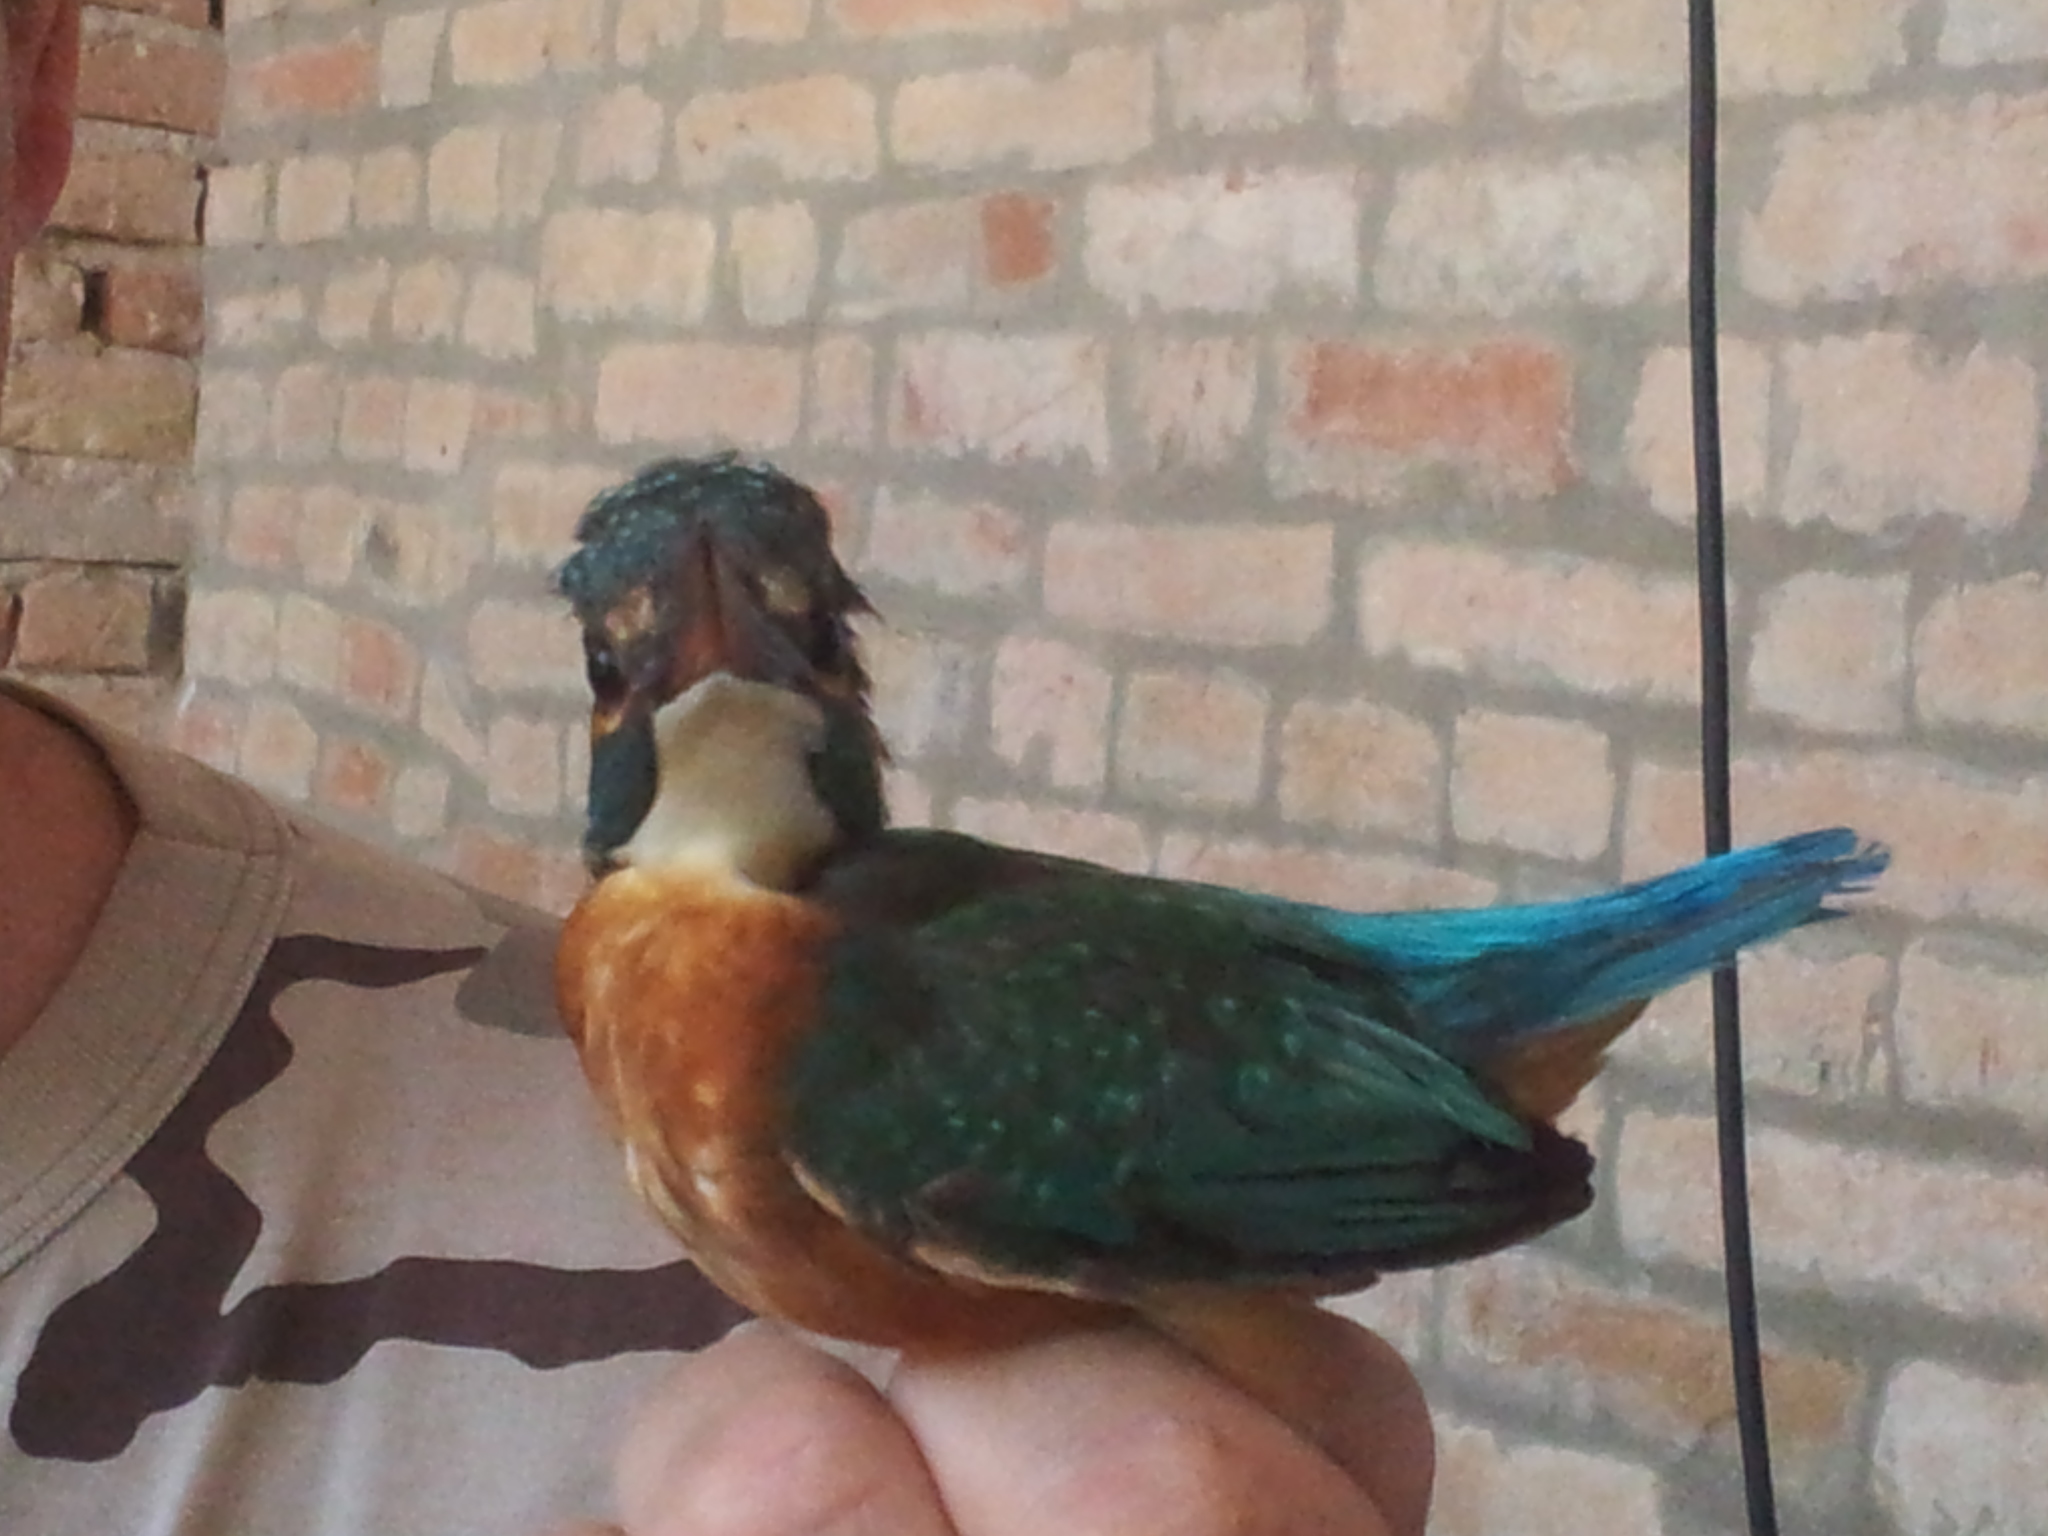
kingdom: Animalia
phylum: Chordata
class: Aves
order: Coraciiformes
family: Alcedinidae
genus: Alcedo
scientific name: Alcedo atthis
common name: Common kingfisher
